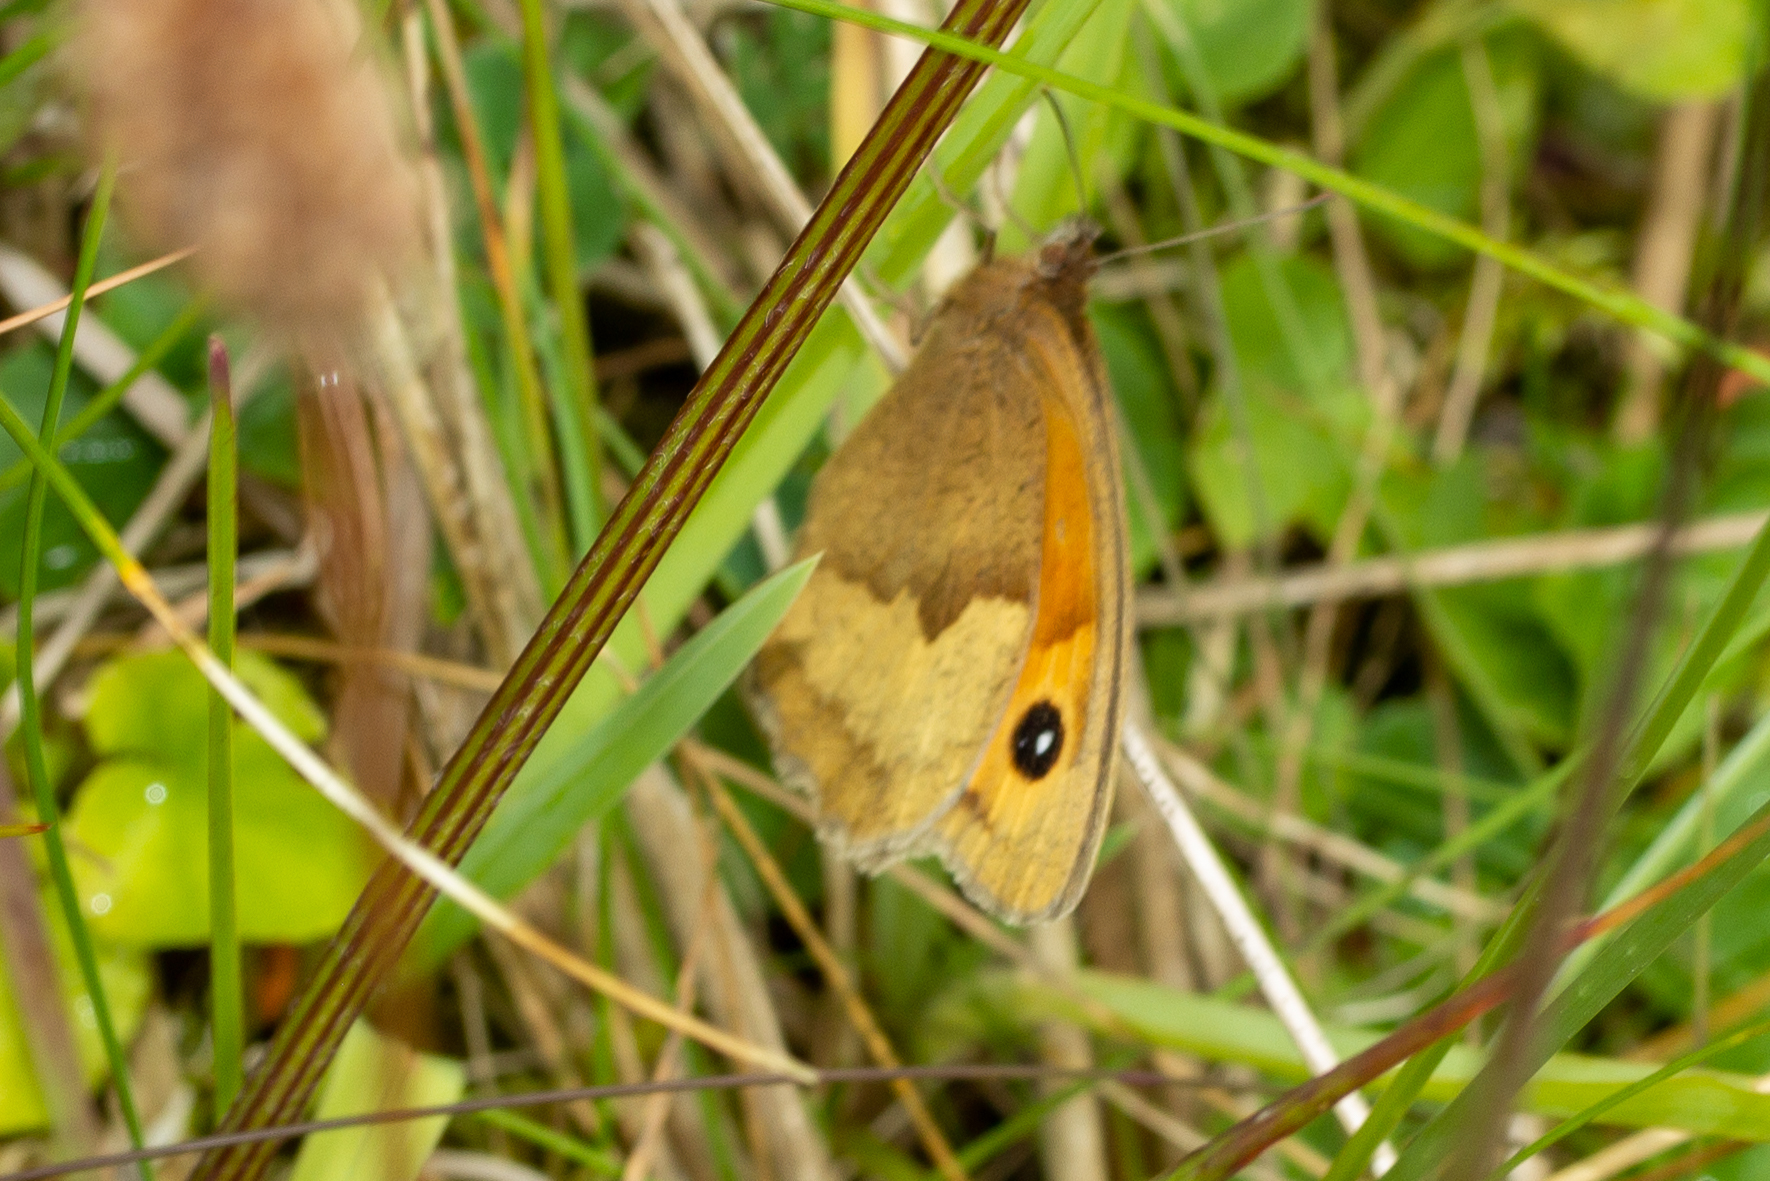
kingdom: Animalia
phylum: Arthropoda
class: Insecta
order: Lepidoptera
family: Nymphalidae
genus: Maniola
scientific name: Maniola jurtina
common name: Meadow brown
